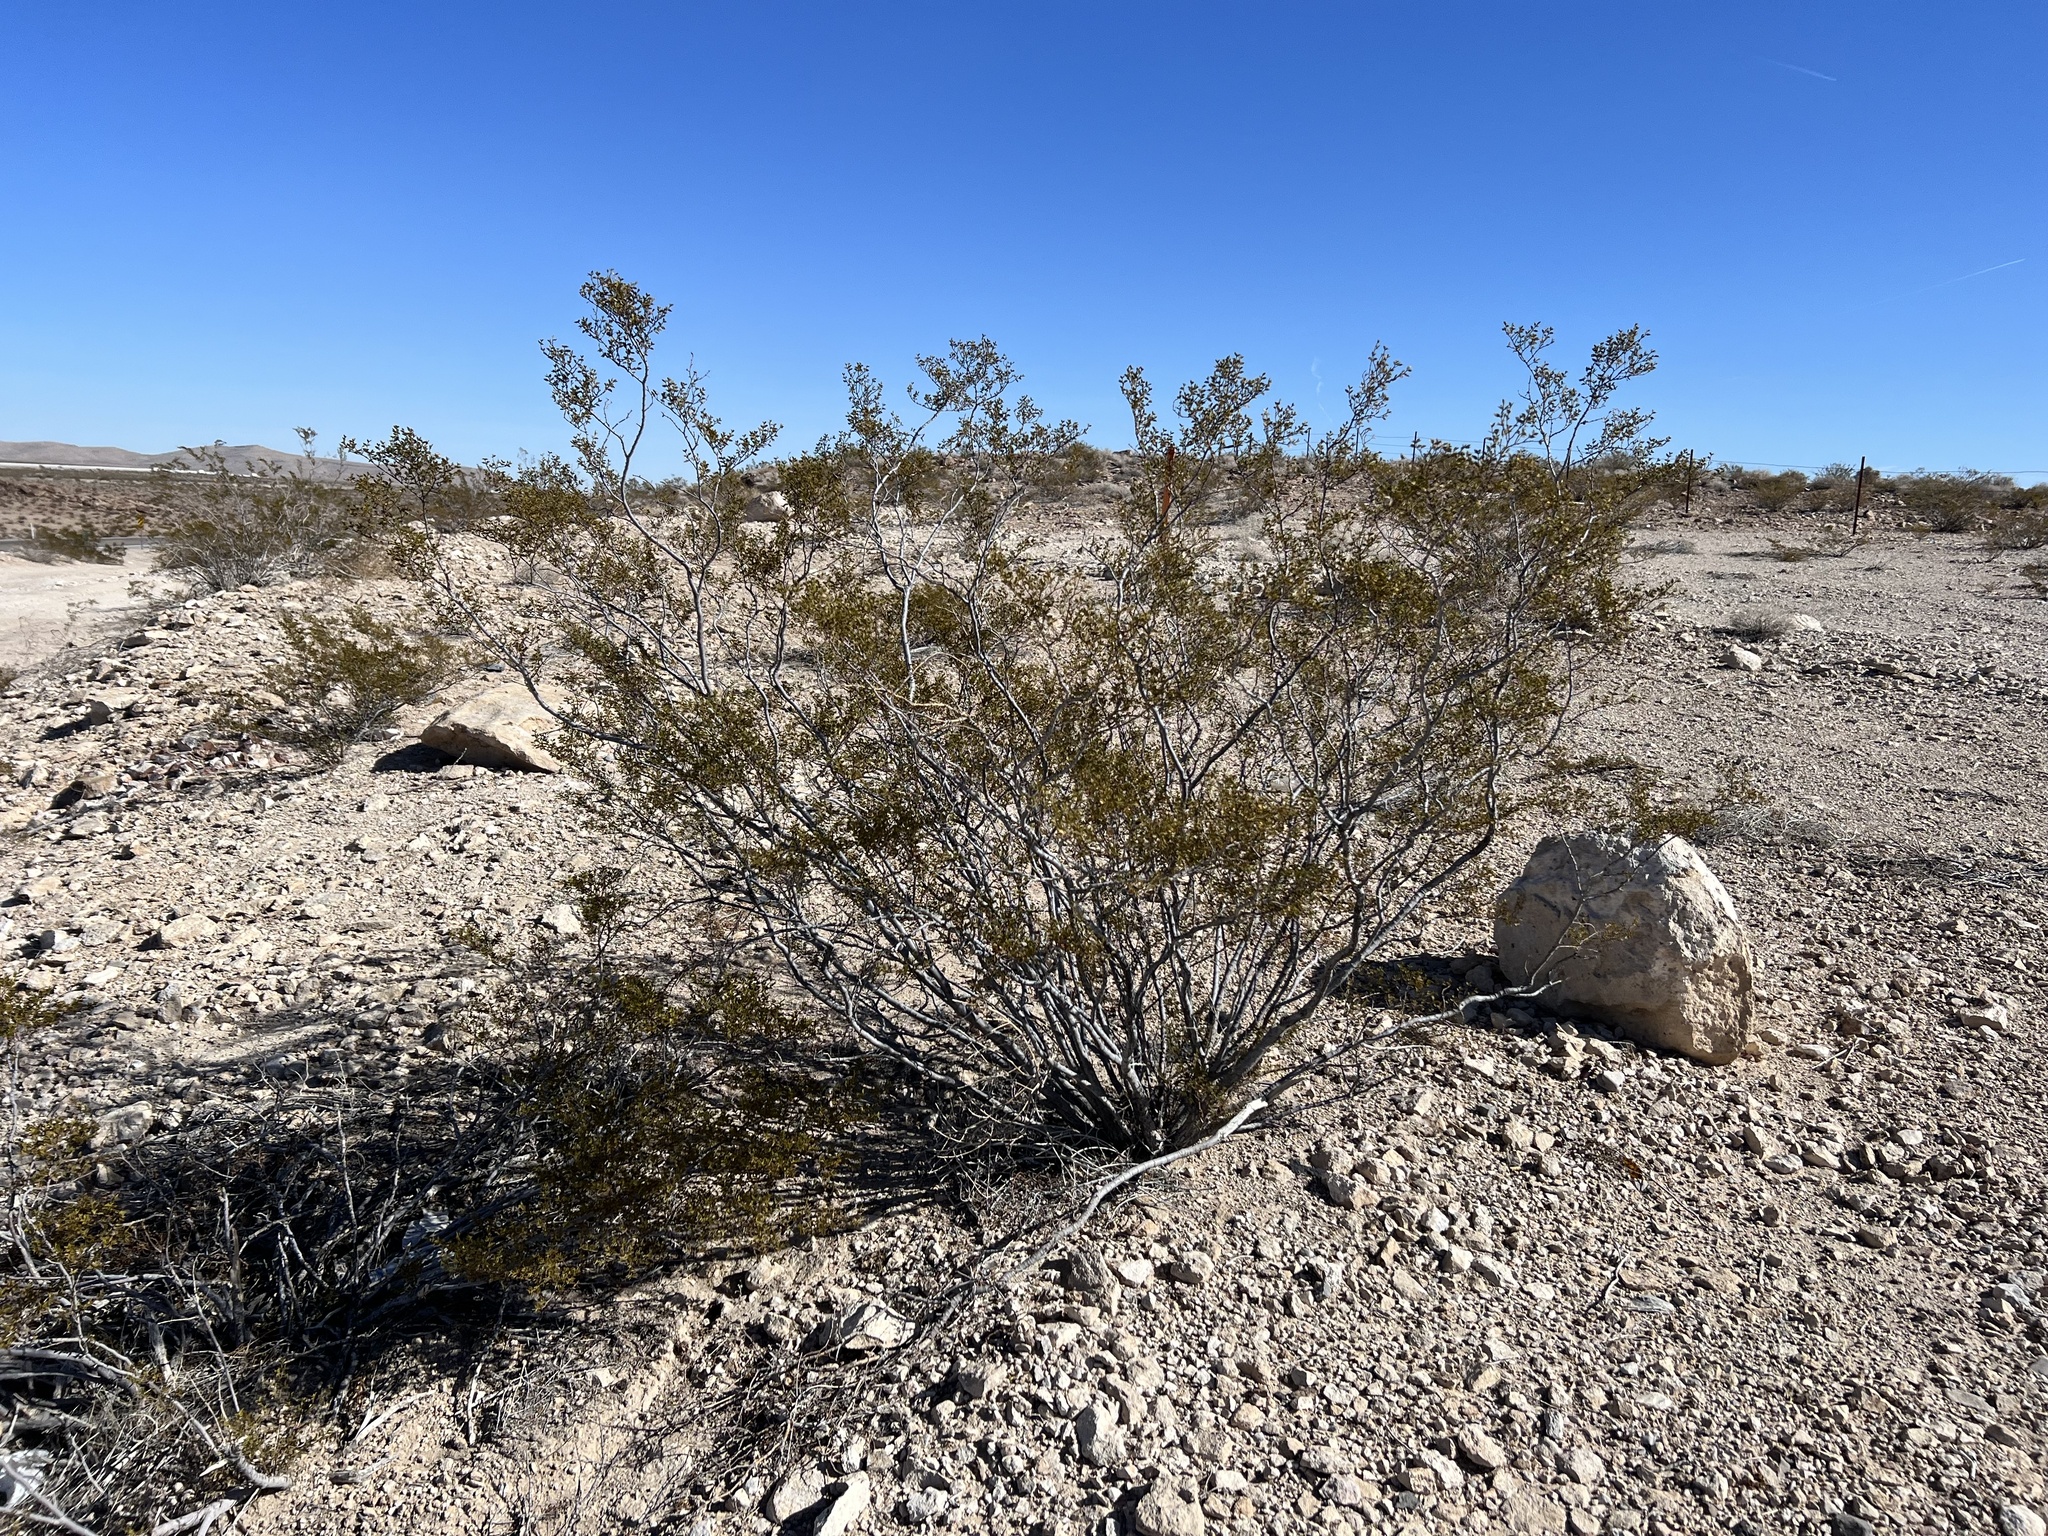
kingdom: Plantae
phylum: Tracheophyta
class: Magnoliopsida
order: Zygophyllales
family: Zygophyllaceae
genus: Larrea
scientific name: Larrea tridentata
